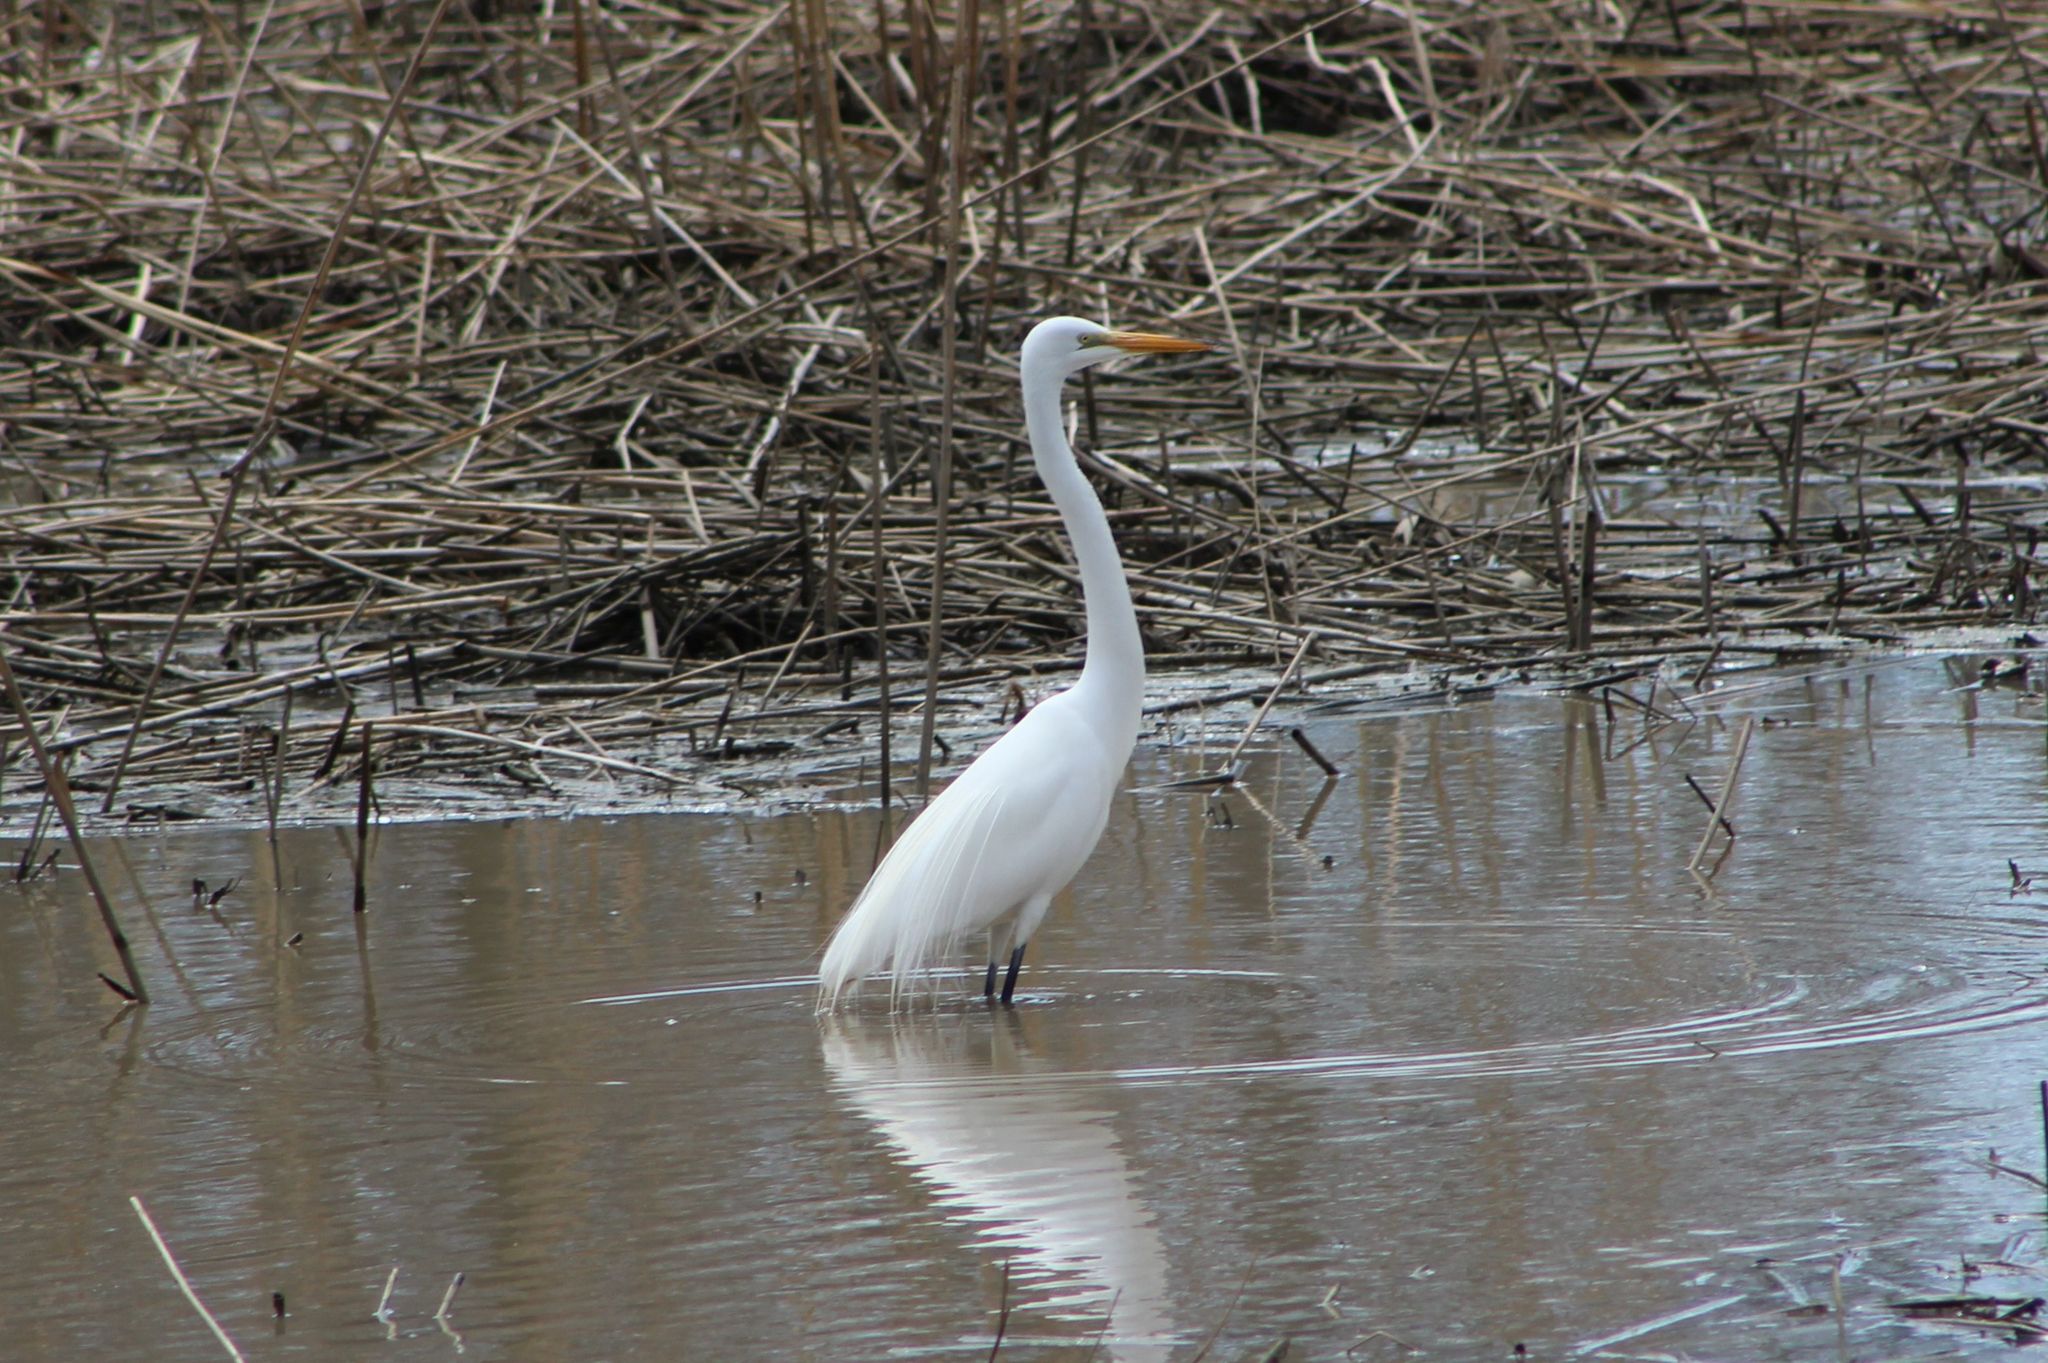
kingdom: Animalia
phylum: Chordata
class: Aves
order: Pelecaniformes
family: Ardeidae
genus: Ardea
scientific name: Ardea alba
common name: Great egret
